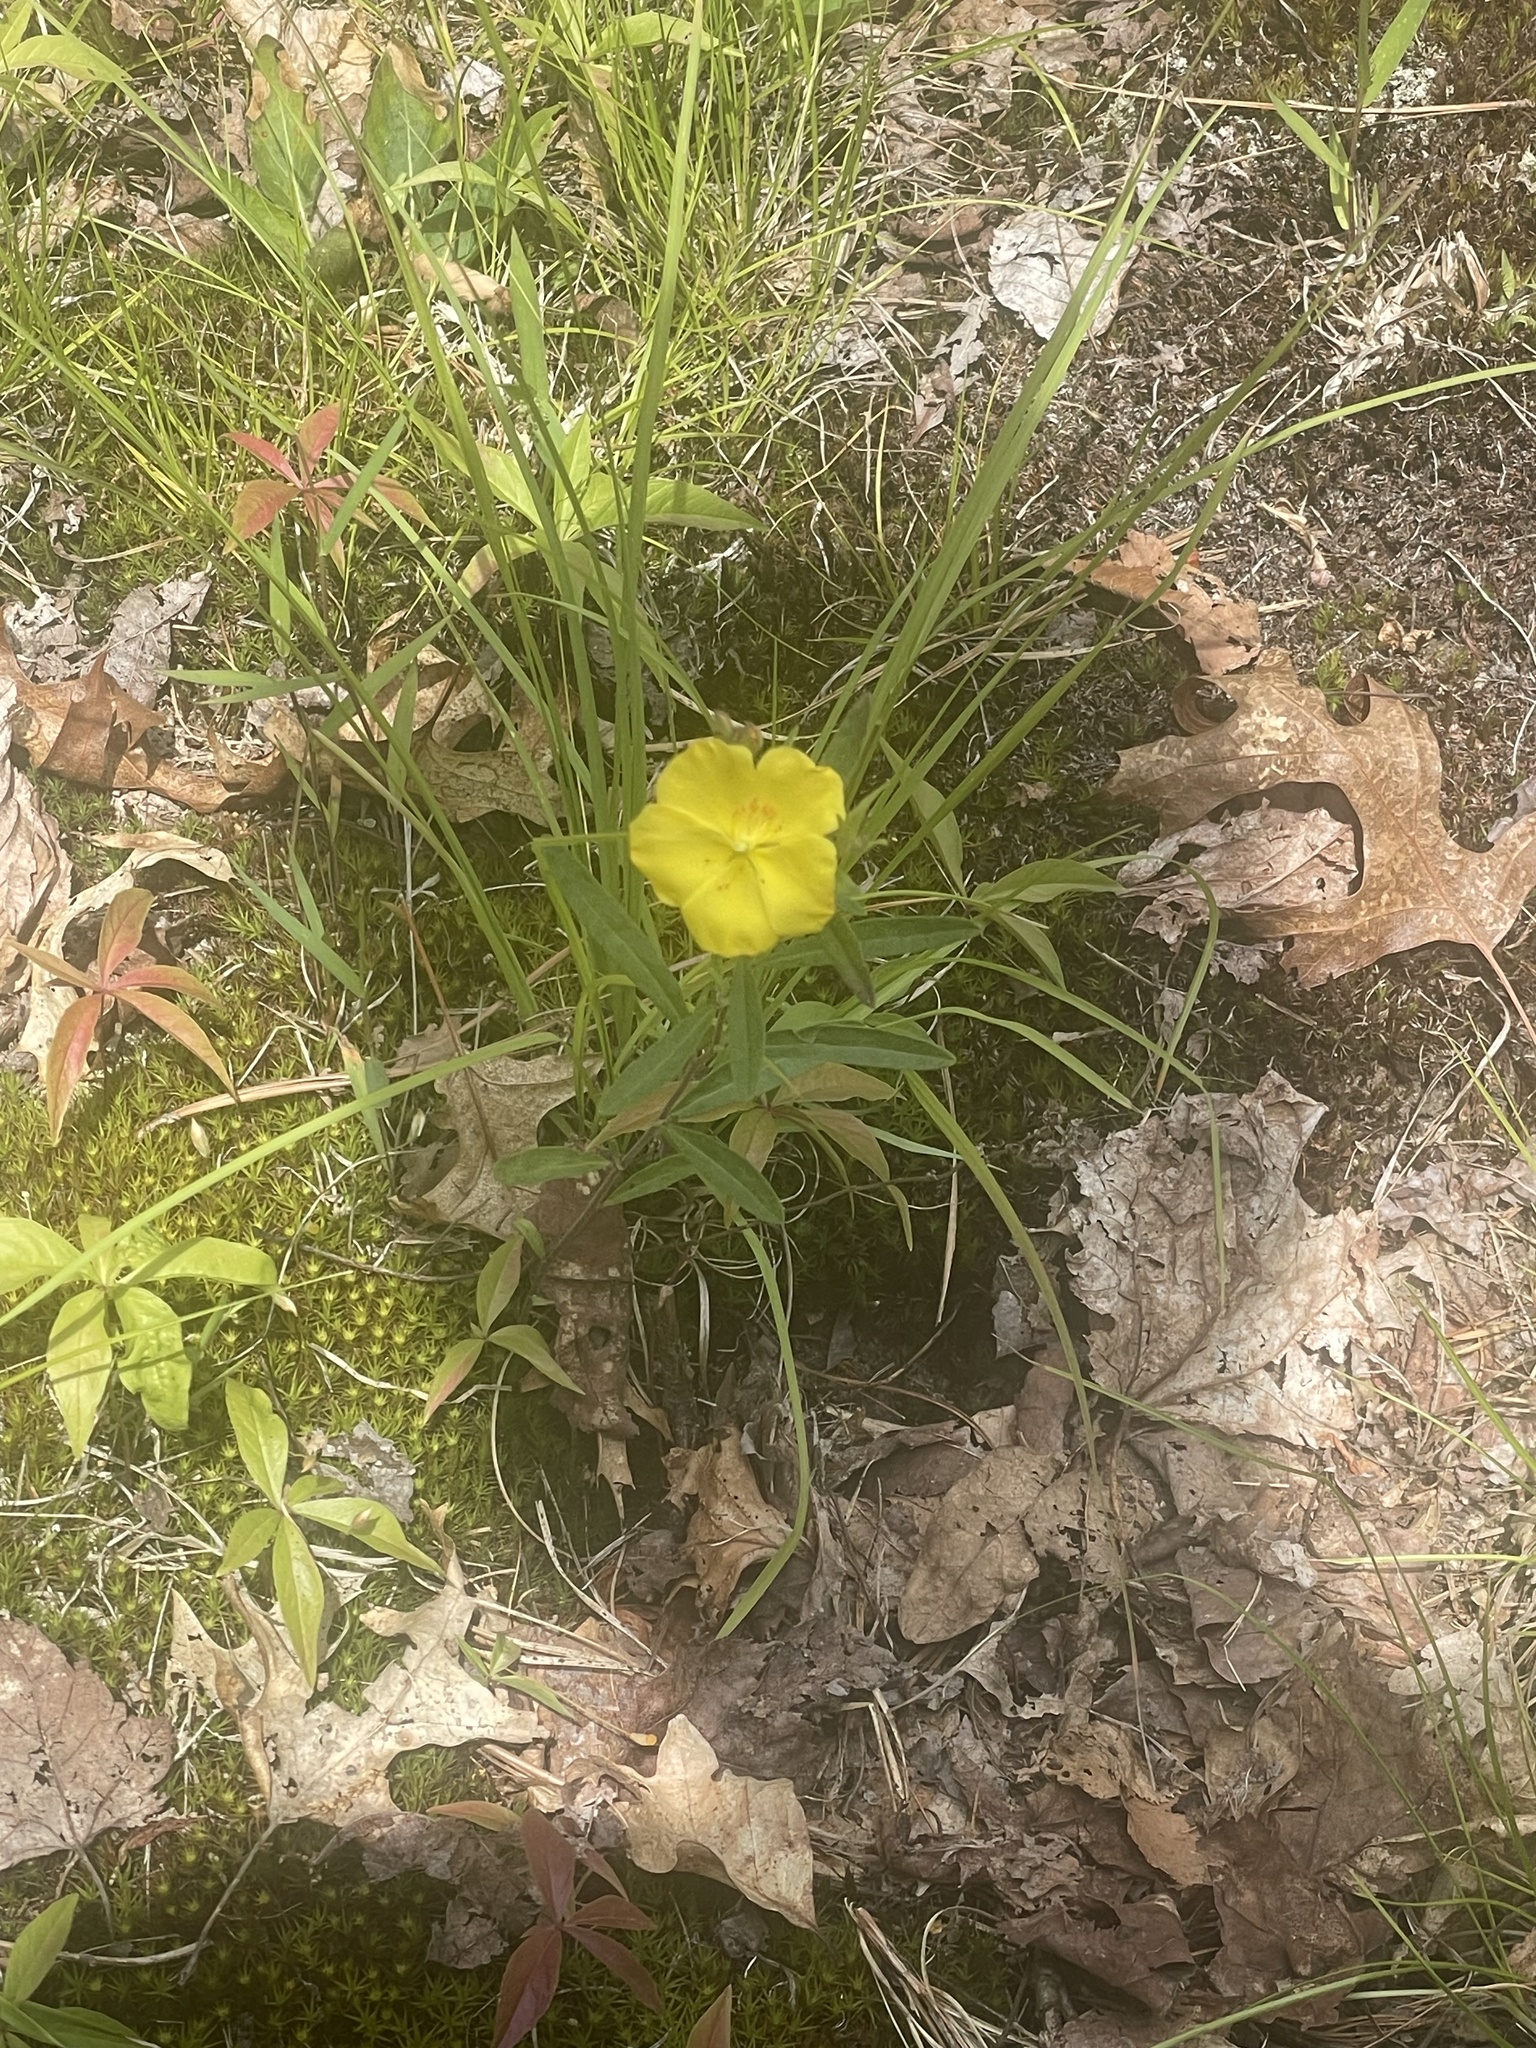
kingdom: Plantae
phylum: Tracheophyta
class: Magnoliopsida
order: Malvales
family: Cistaceae
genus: Crocanthemum
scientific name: Crocanthemum canadense
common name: Canada frostweed
